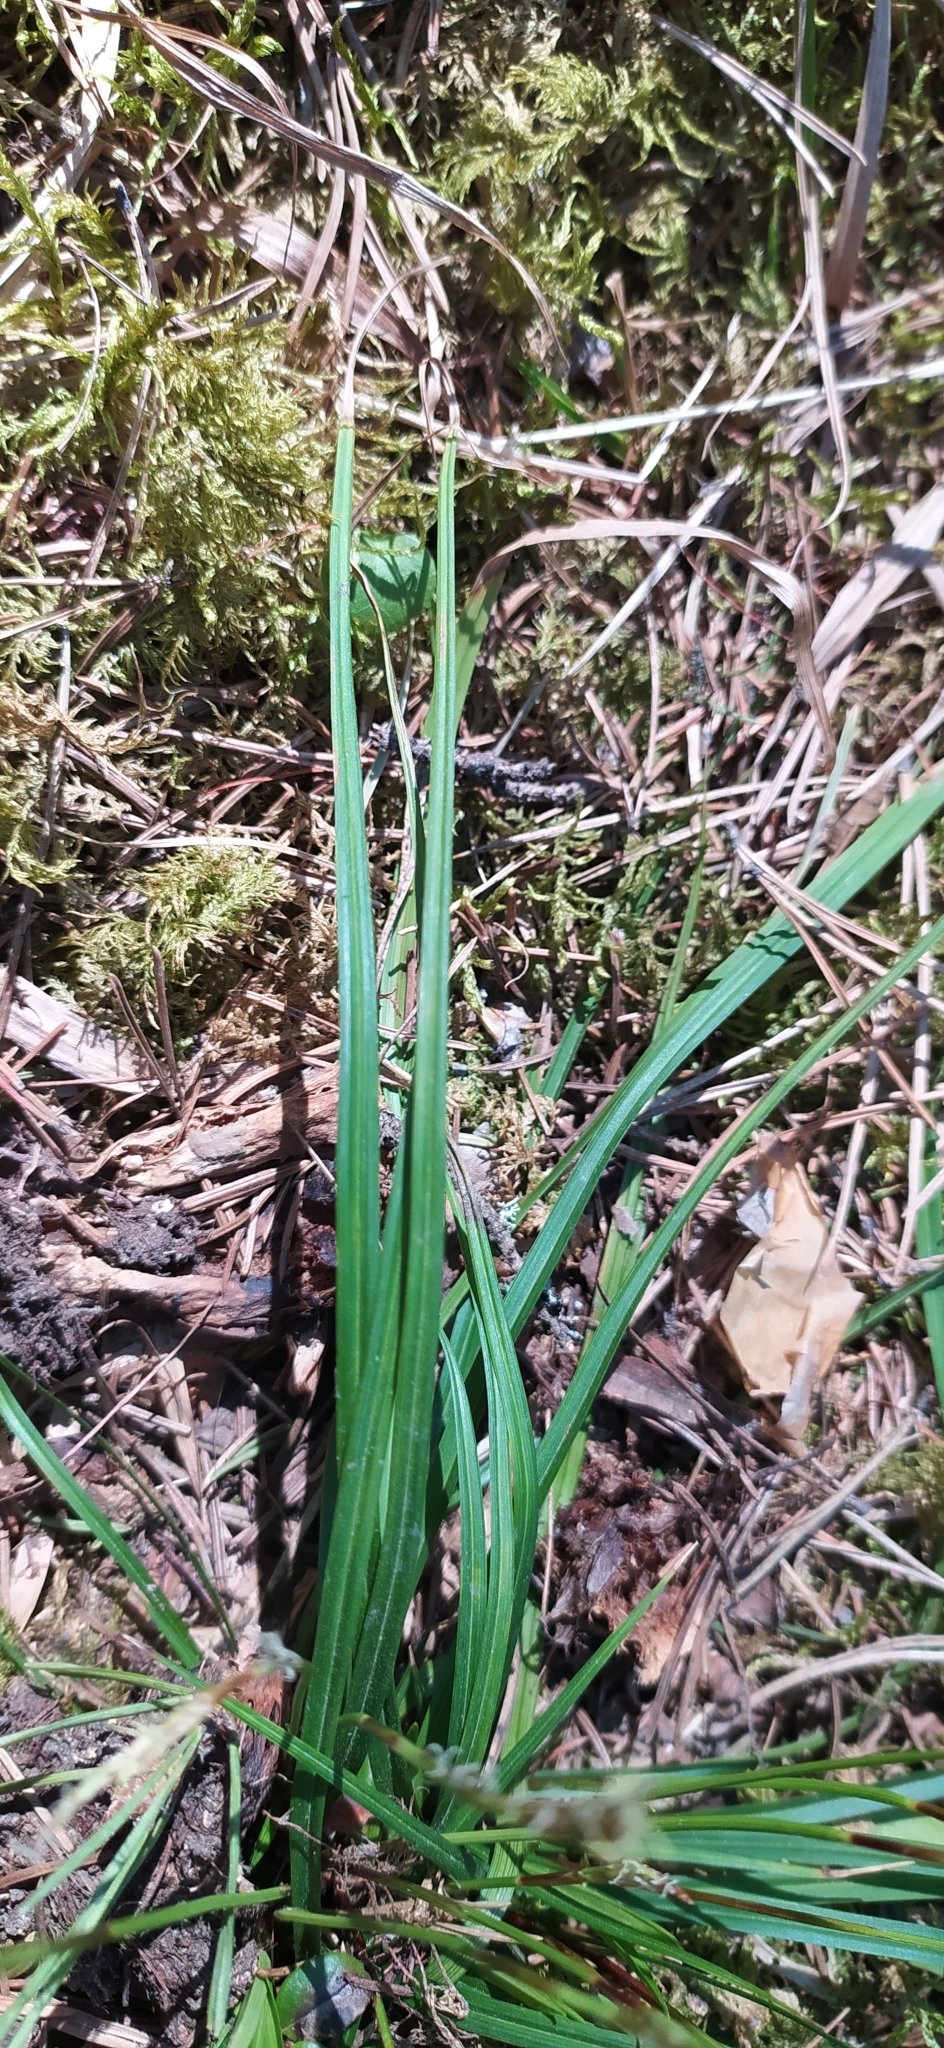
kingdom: Plantae
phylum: Tracheophyta
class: Liliopsida
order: Poales
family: Cyperaceae
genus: Carex
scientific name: Carex digitata
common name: Fingered sedge
